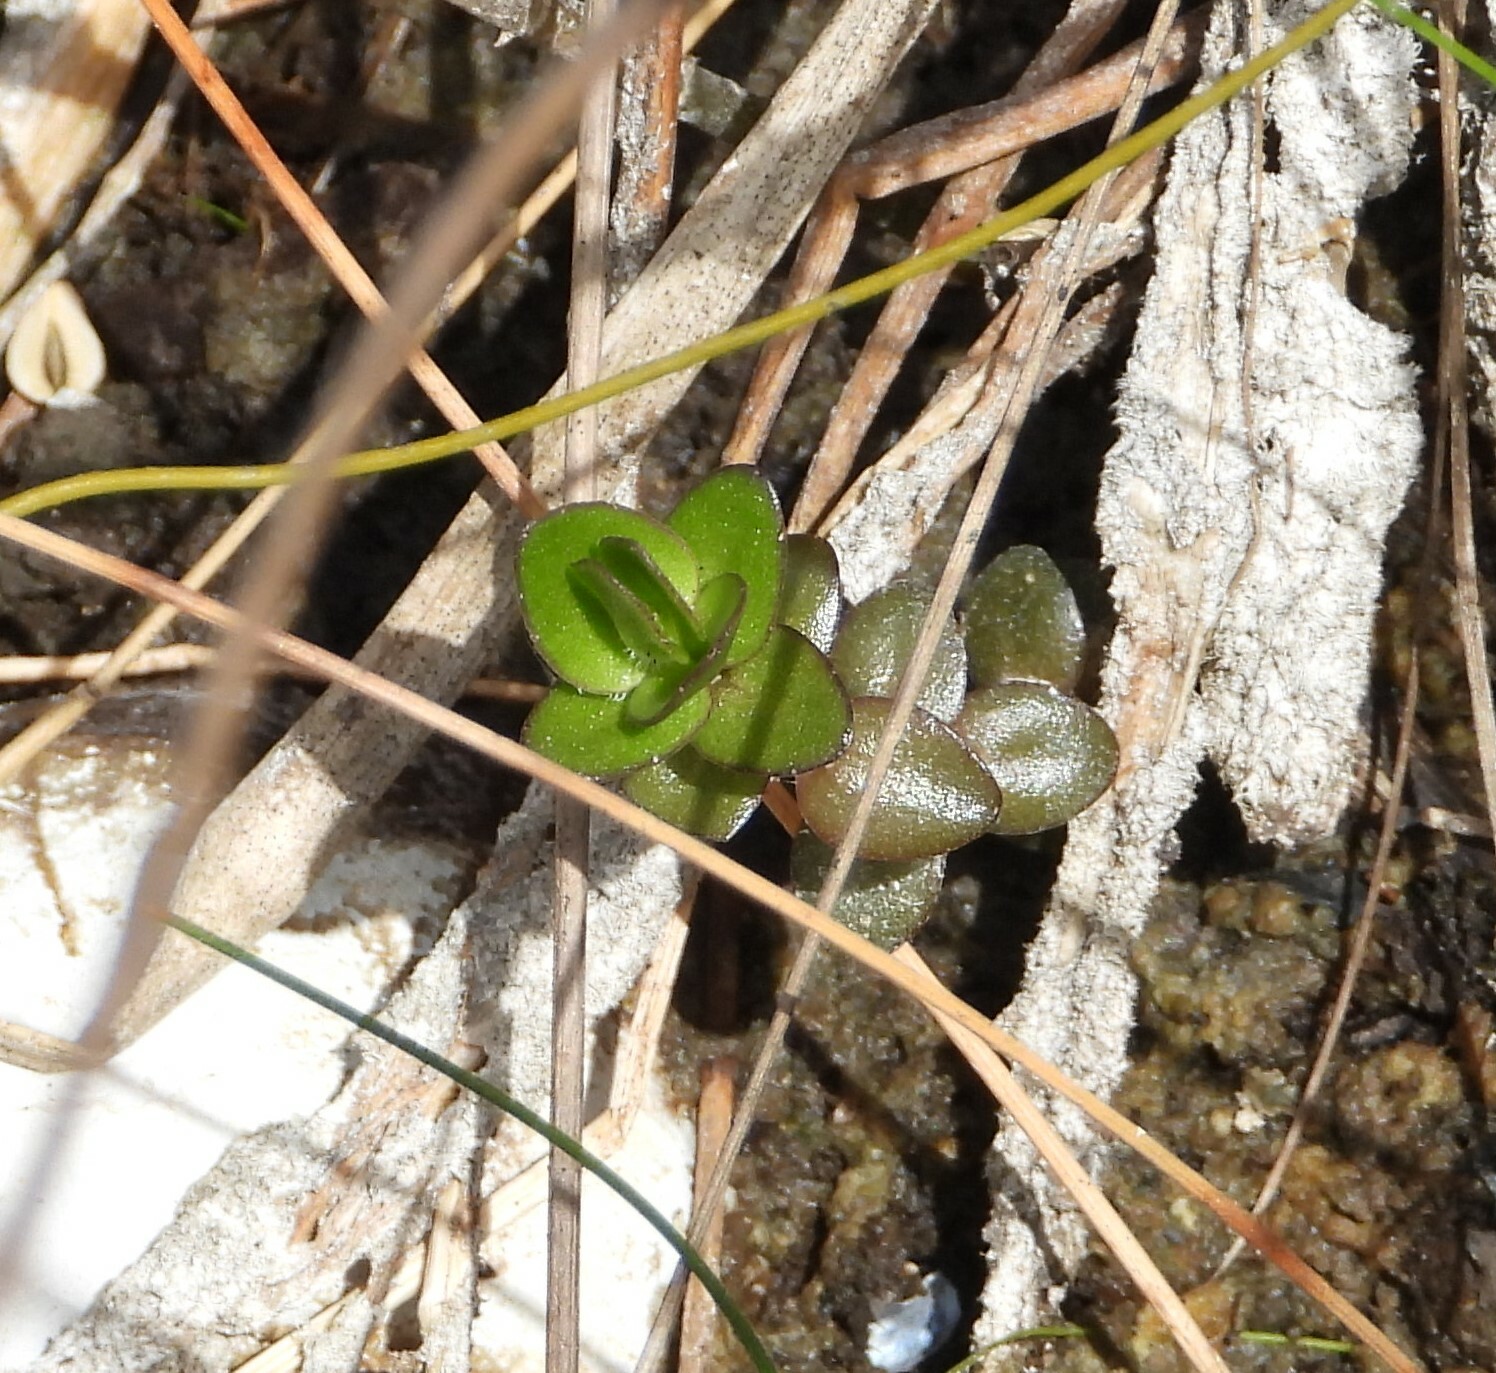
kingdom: Plantae
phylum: Tracheophyta
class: Magnoliopsida
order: Lamiales
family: Plantaginaceae
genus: Bacopa
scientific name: Bacopa caroliniana
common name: Lemon bacopa
